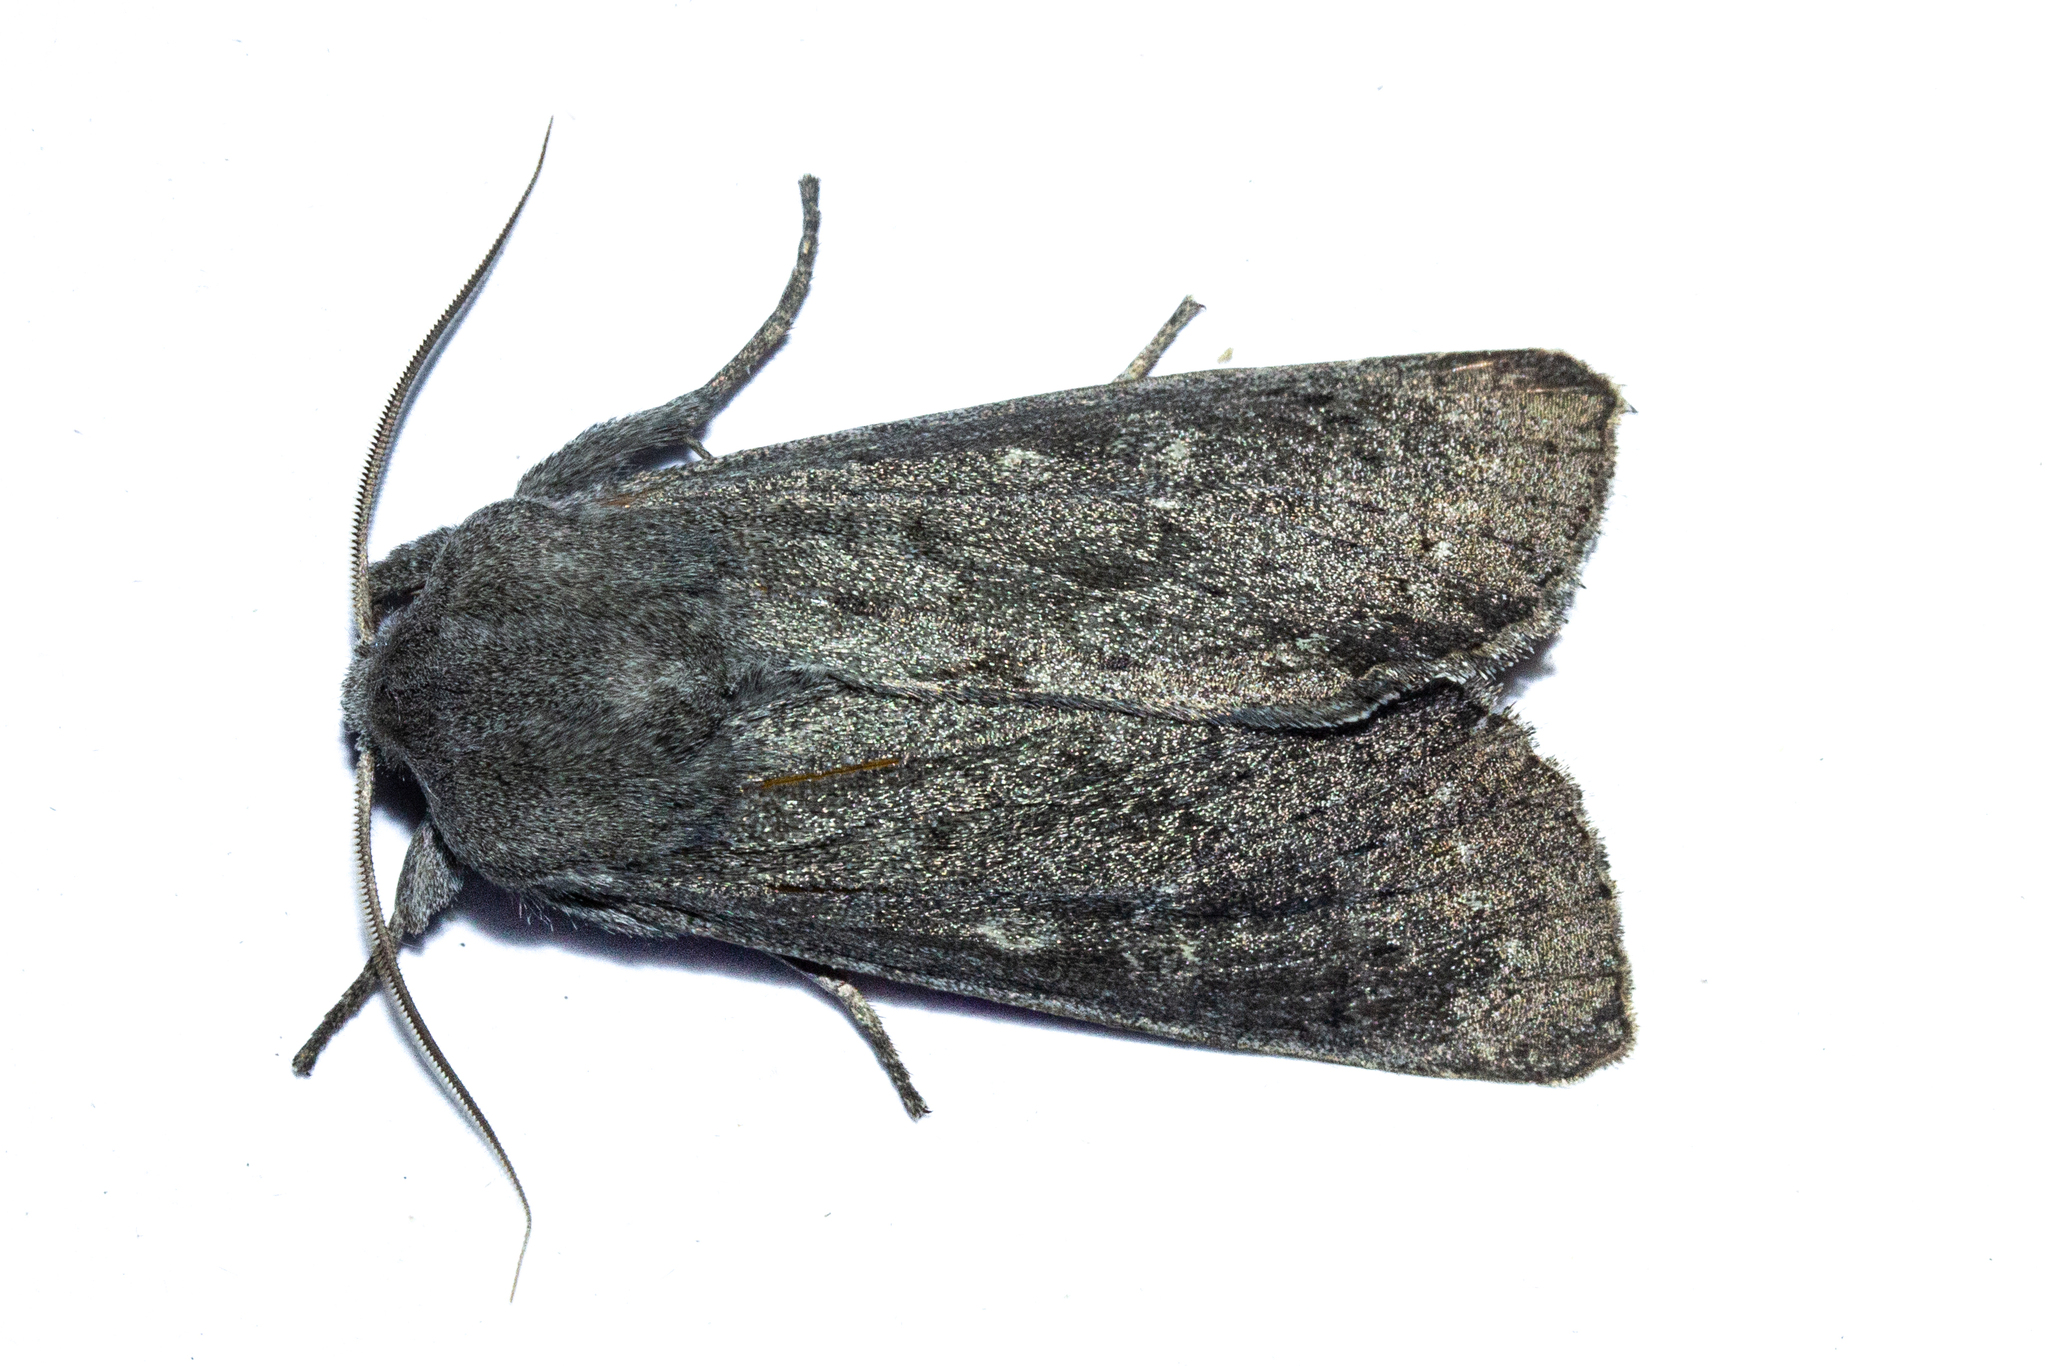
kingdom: Animalia
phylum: Arthropoda
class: Insecta
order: Lepidoptera
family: Noctuidae
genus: Ichneutica
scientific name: Ichneutica nullifera
